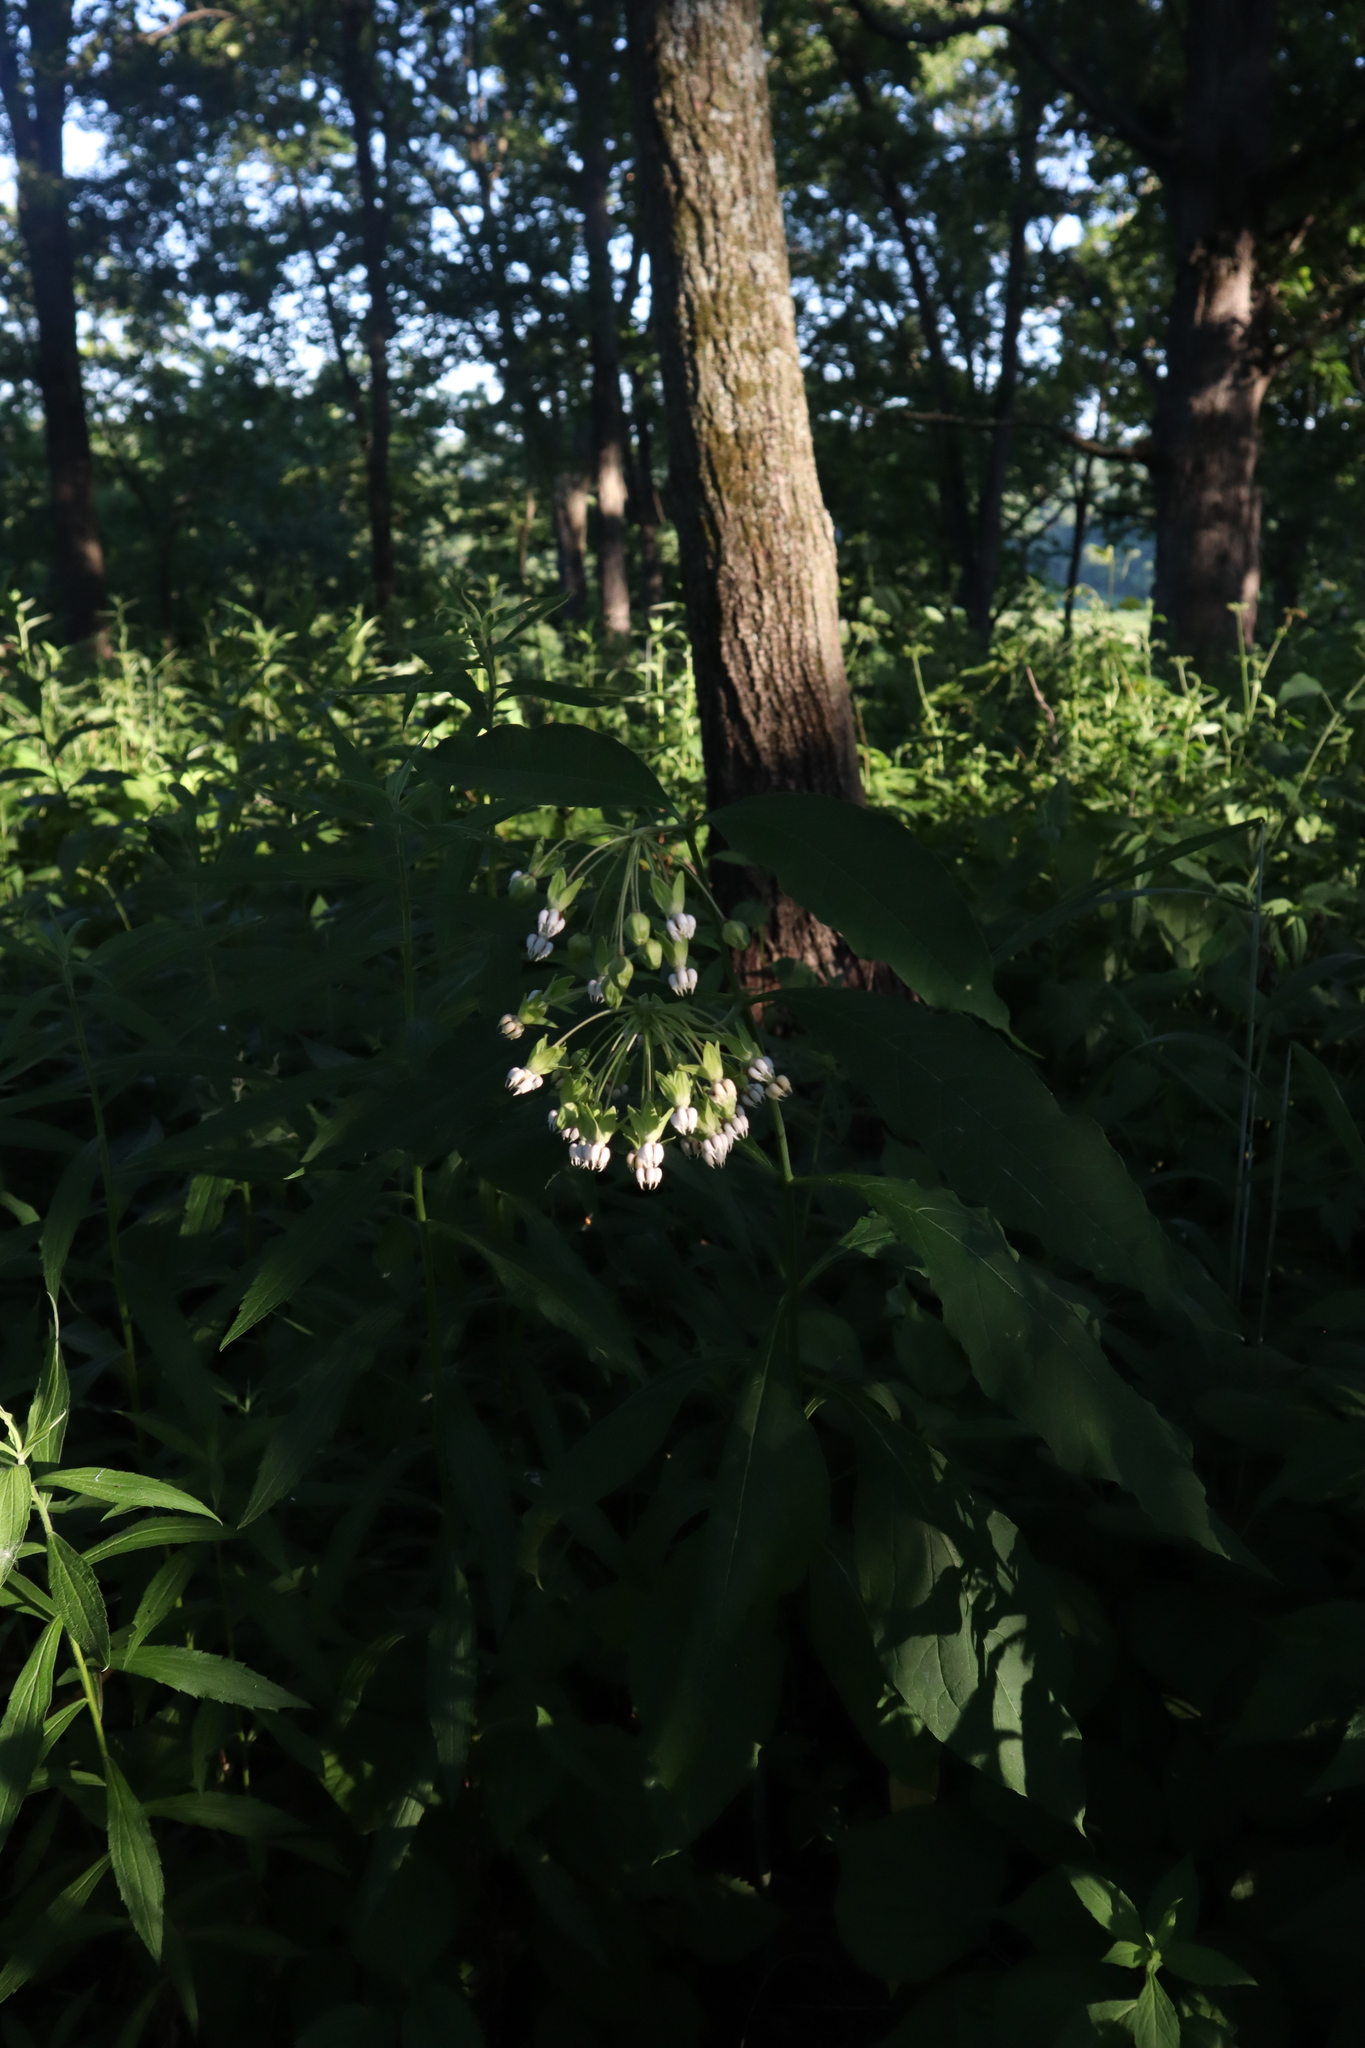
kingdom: Plantae
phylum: Tracheophyta
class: Magnoliopsida
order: Gentianales
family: Apocynaceae
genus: Asclepias
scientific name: Asclepias exaltata
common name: Poke milkweed
